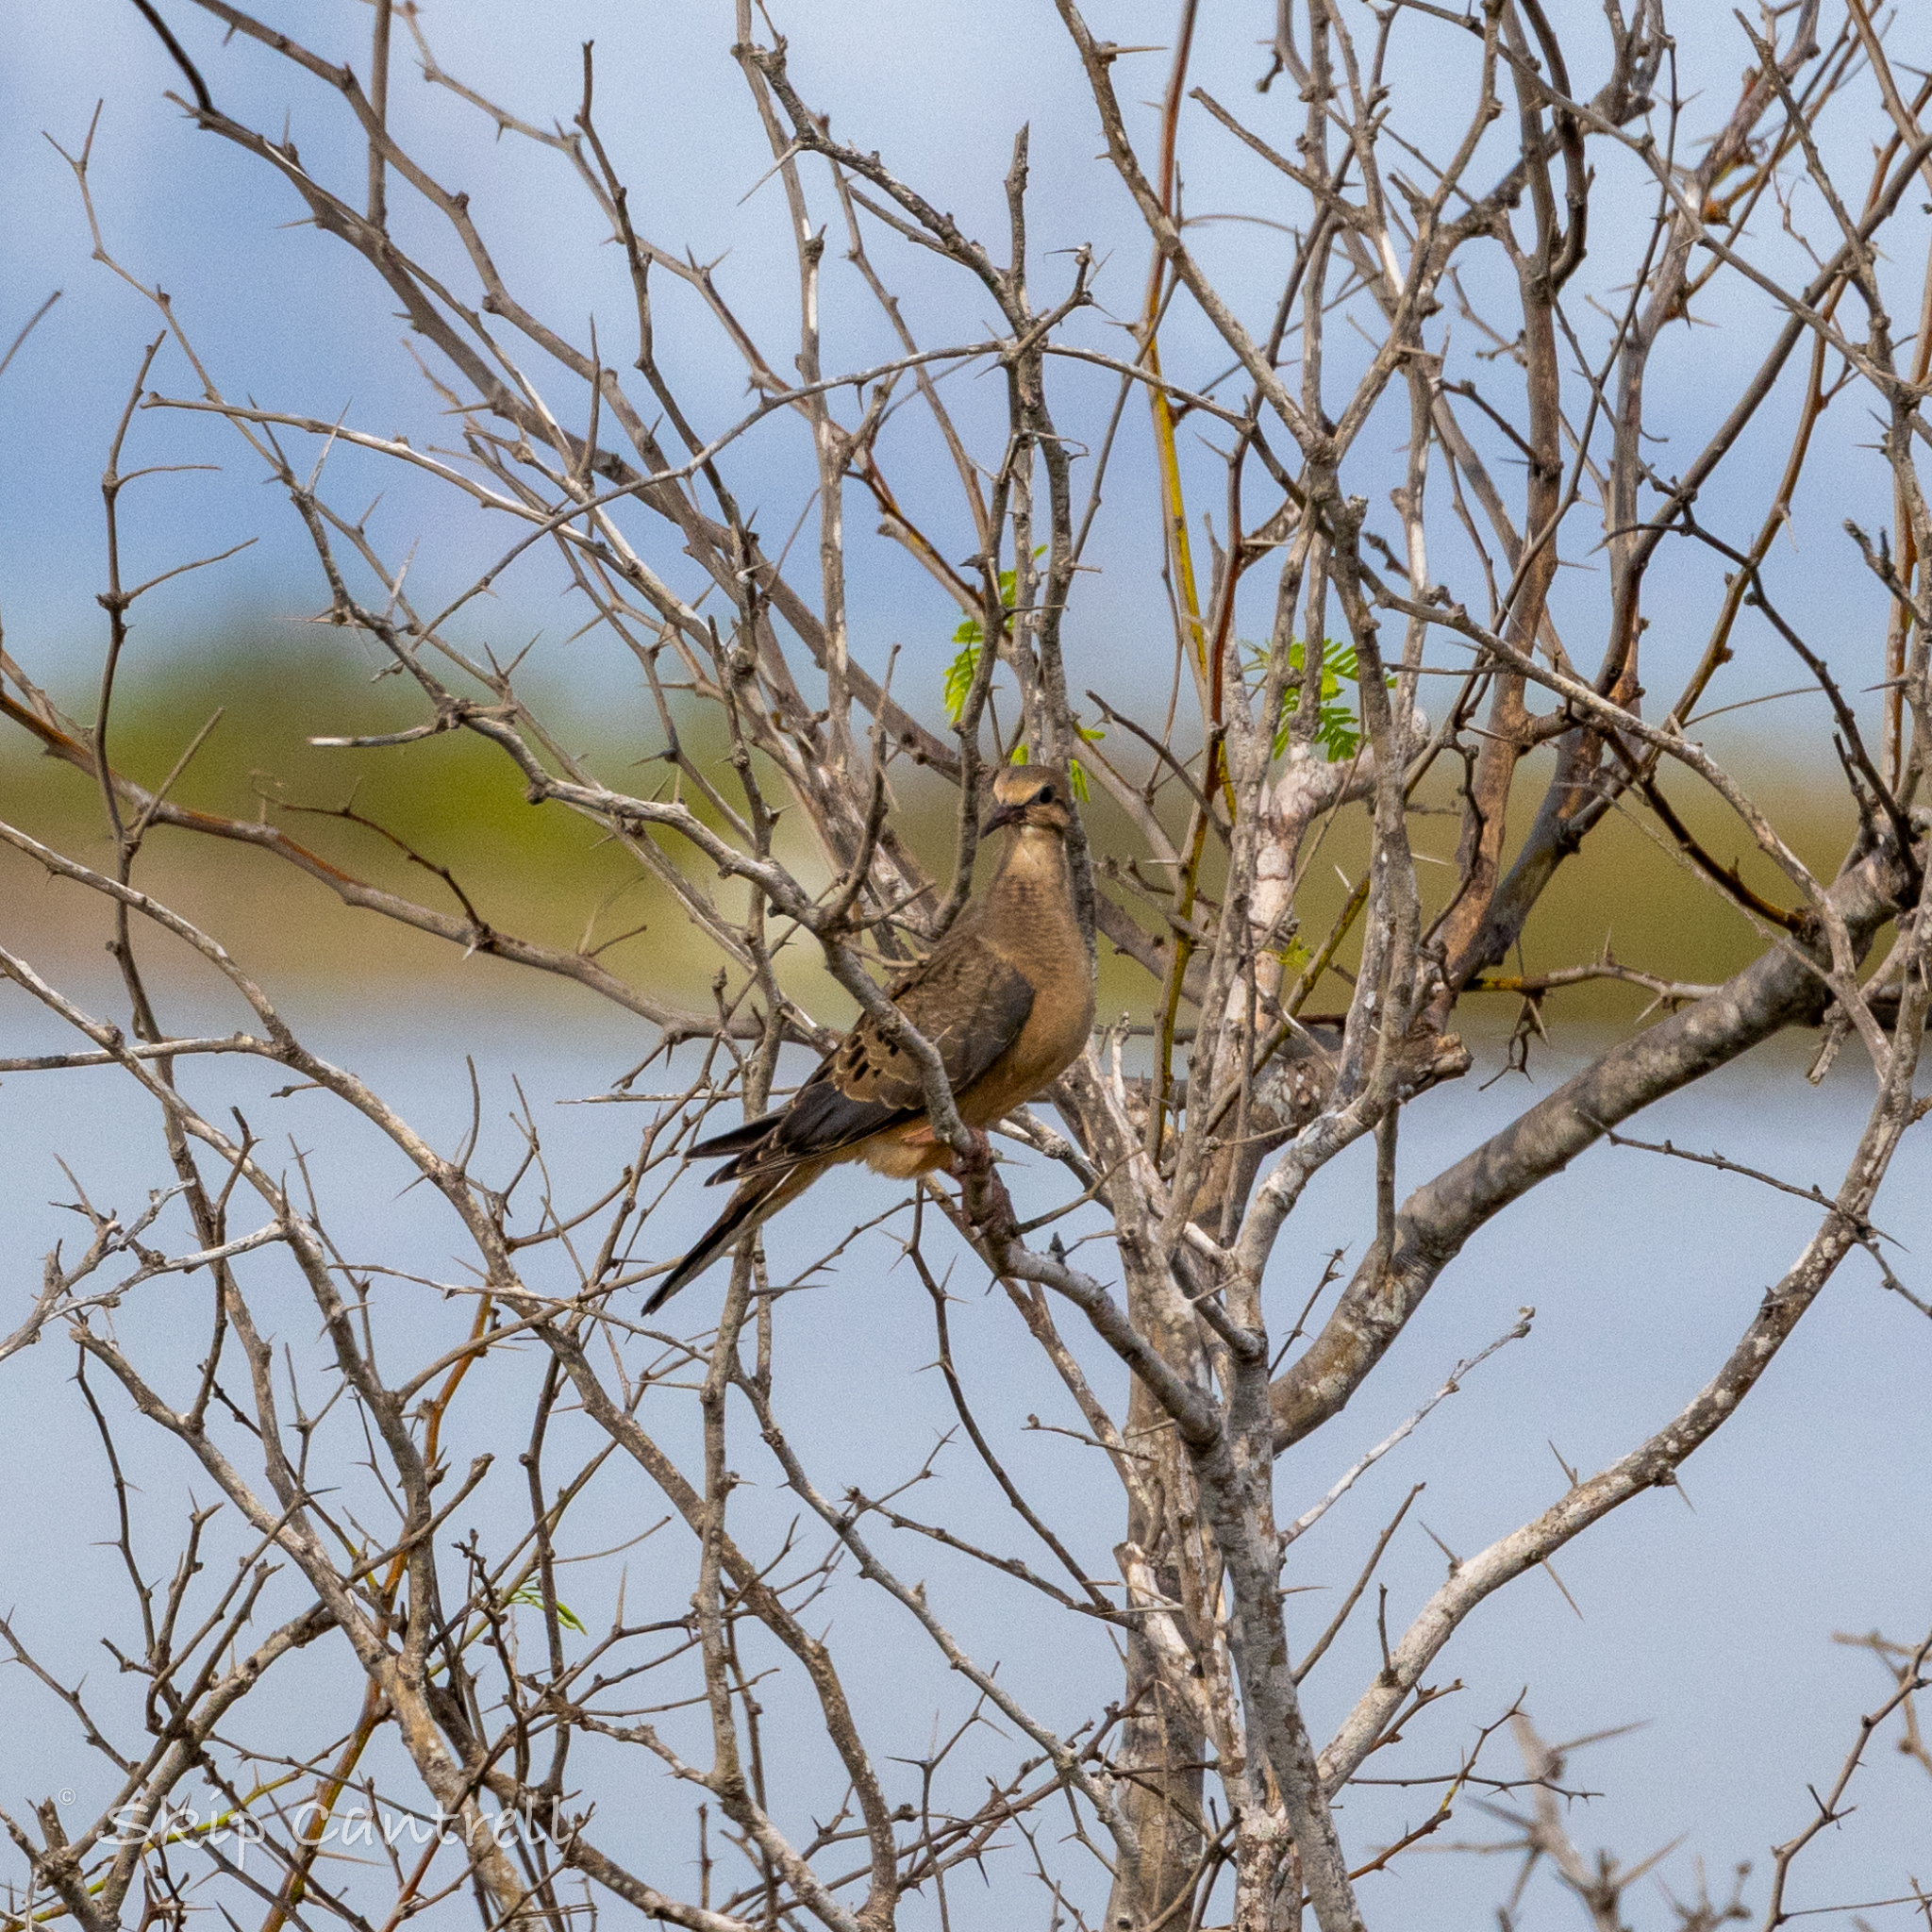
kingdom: Animalia
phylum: Chordata
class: Aves
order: Columbiformes
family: Columbidae
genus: Zenaida
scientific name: Zenaida macroura
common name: Mourning dove
